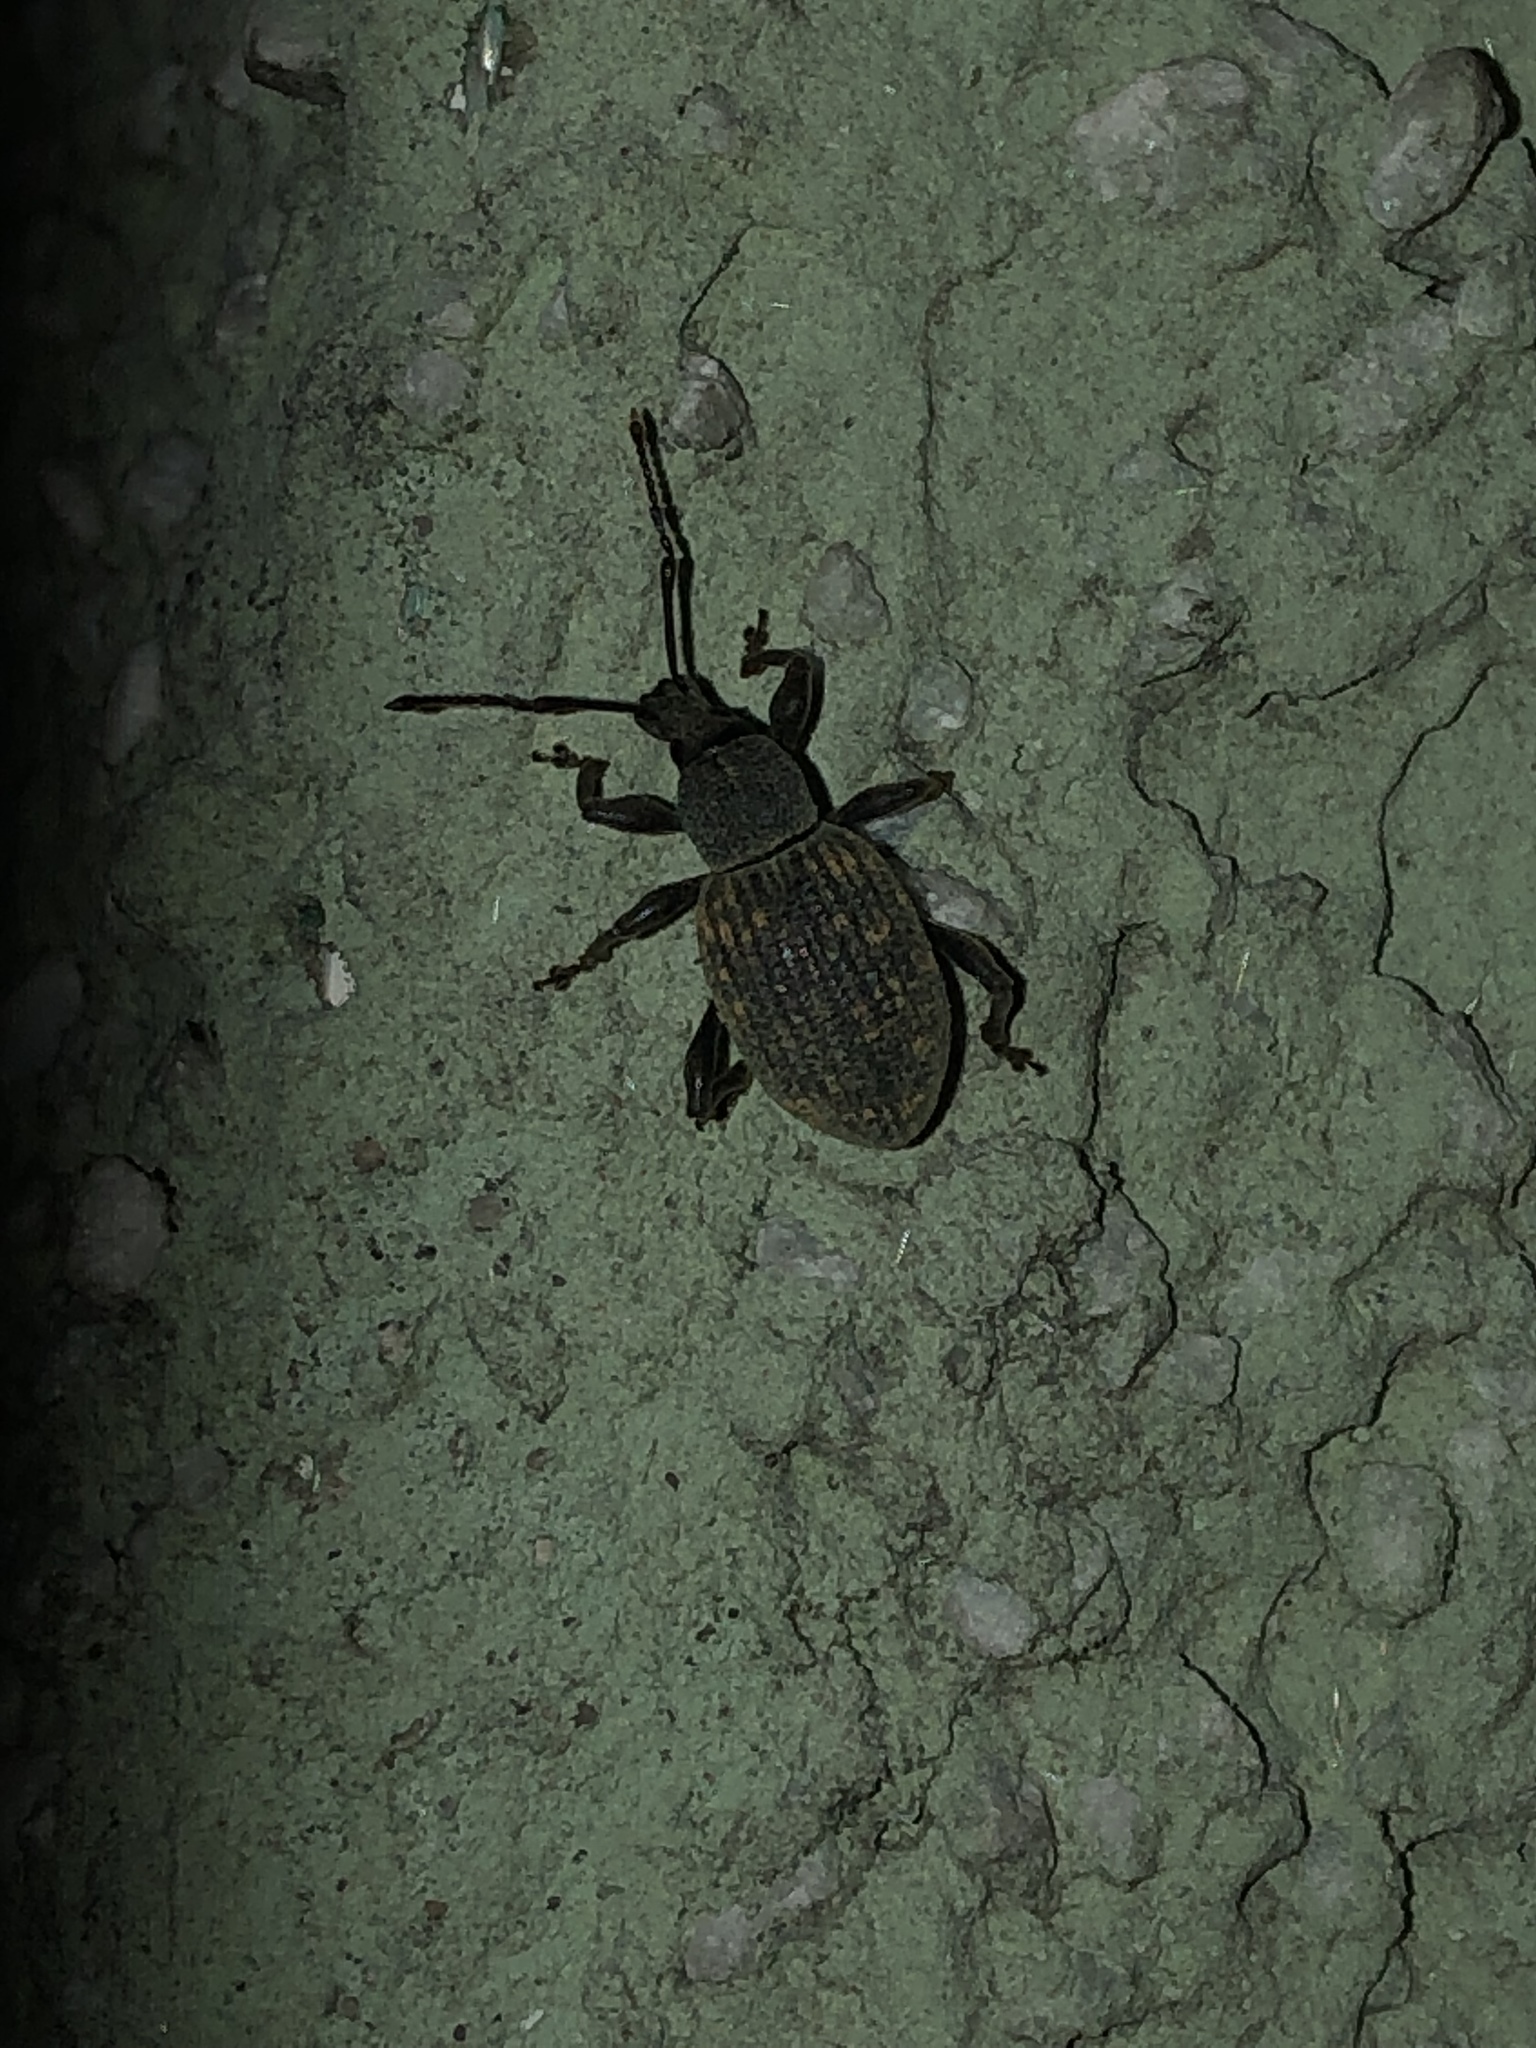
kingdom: Animalia
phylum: Arthropoda
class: Insecta
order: Coleoptera
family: Curculionidae
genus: Otiorhynchus
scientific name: Otiorhynchus sulcatus
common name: Black vine weevil
